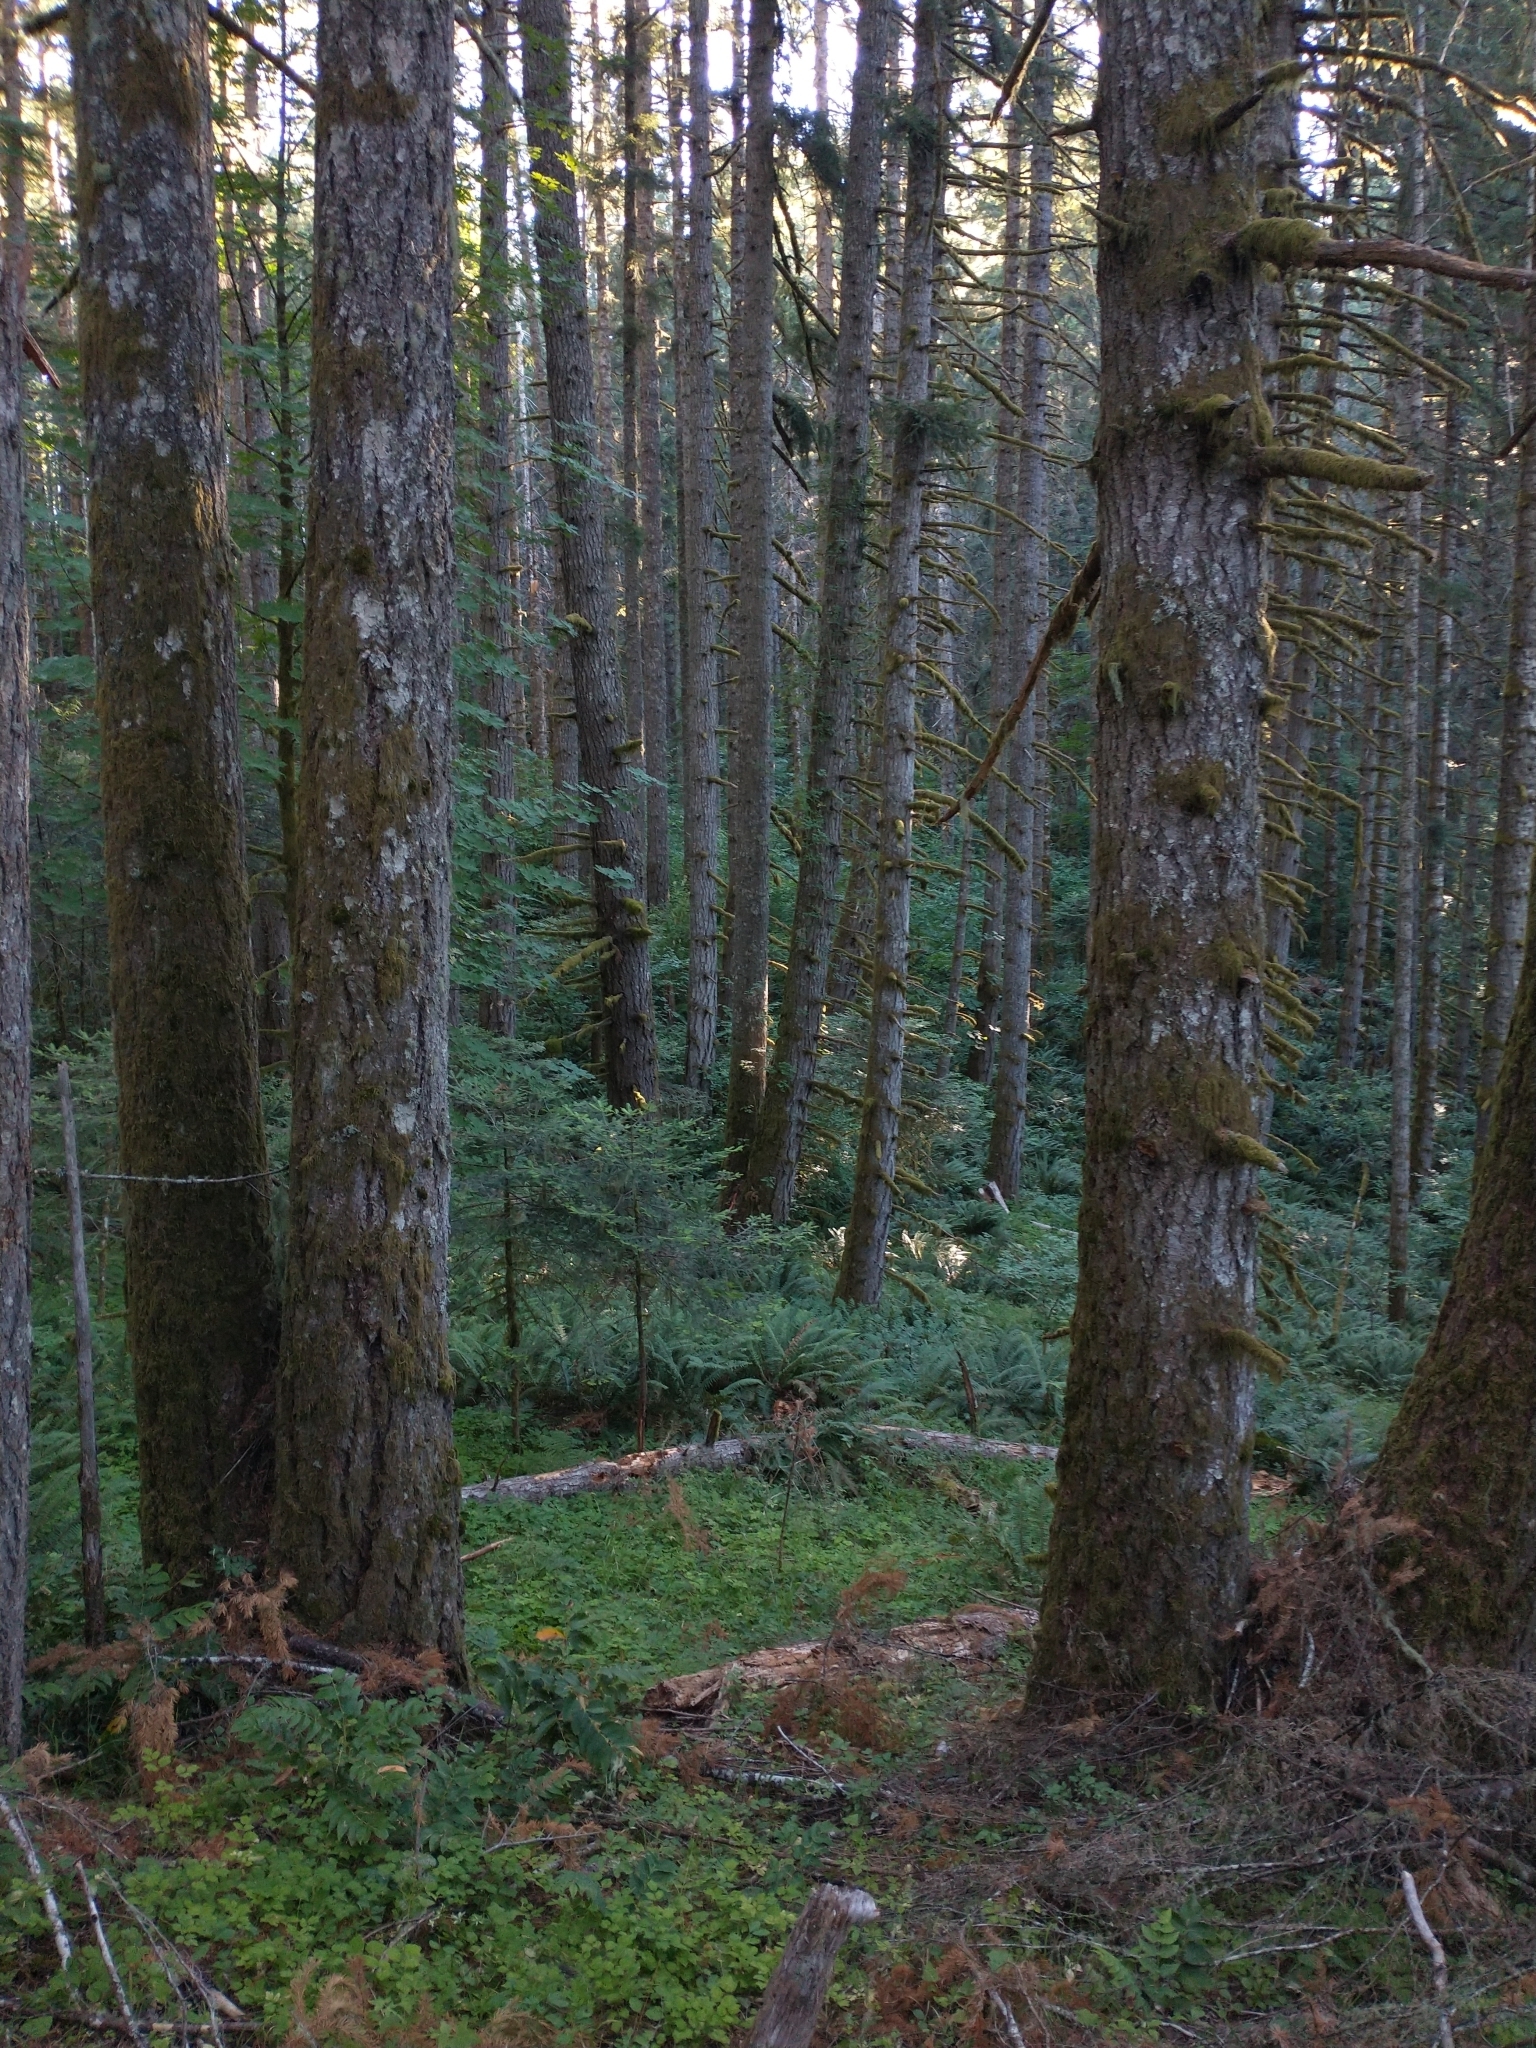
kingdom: Plantae
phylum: Tracheophyta
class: Polypodiopsida
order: Polypodiales
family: Dryopteridaceae
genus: Polystichum
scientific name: Polystichum munitum
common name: Western sword-fern
